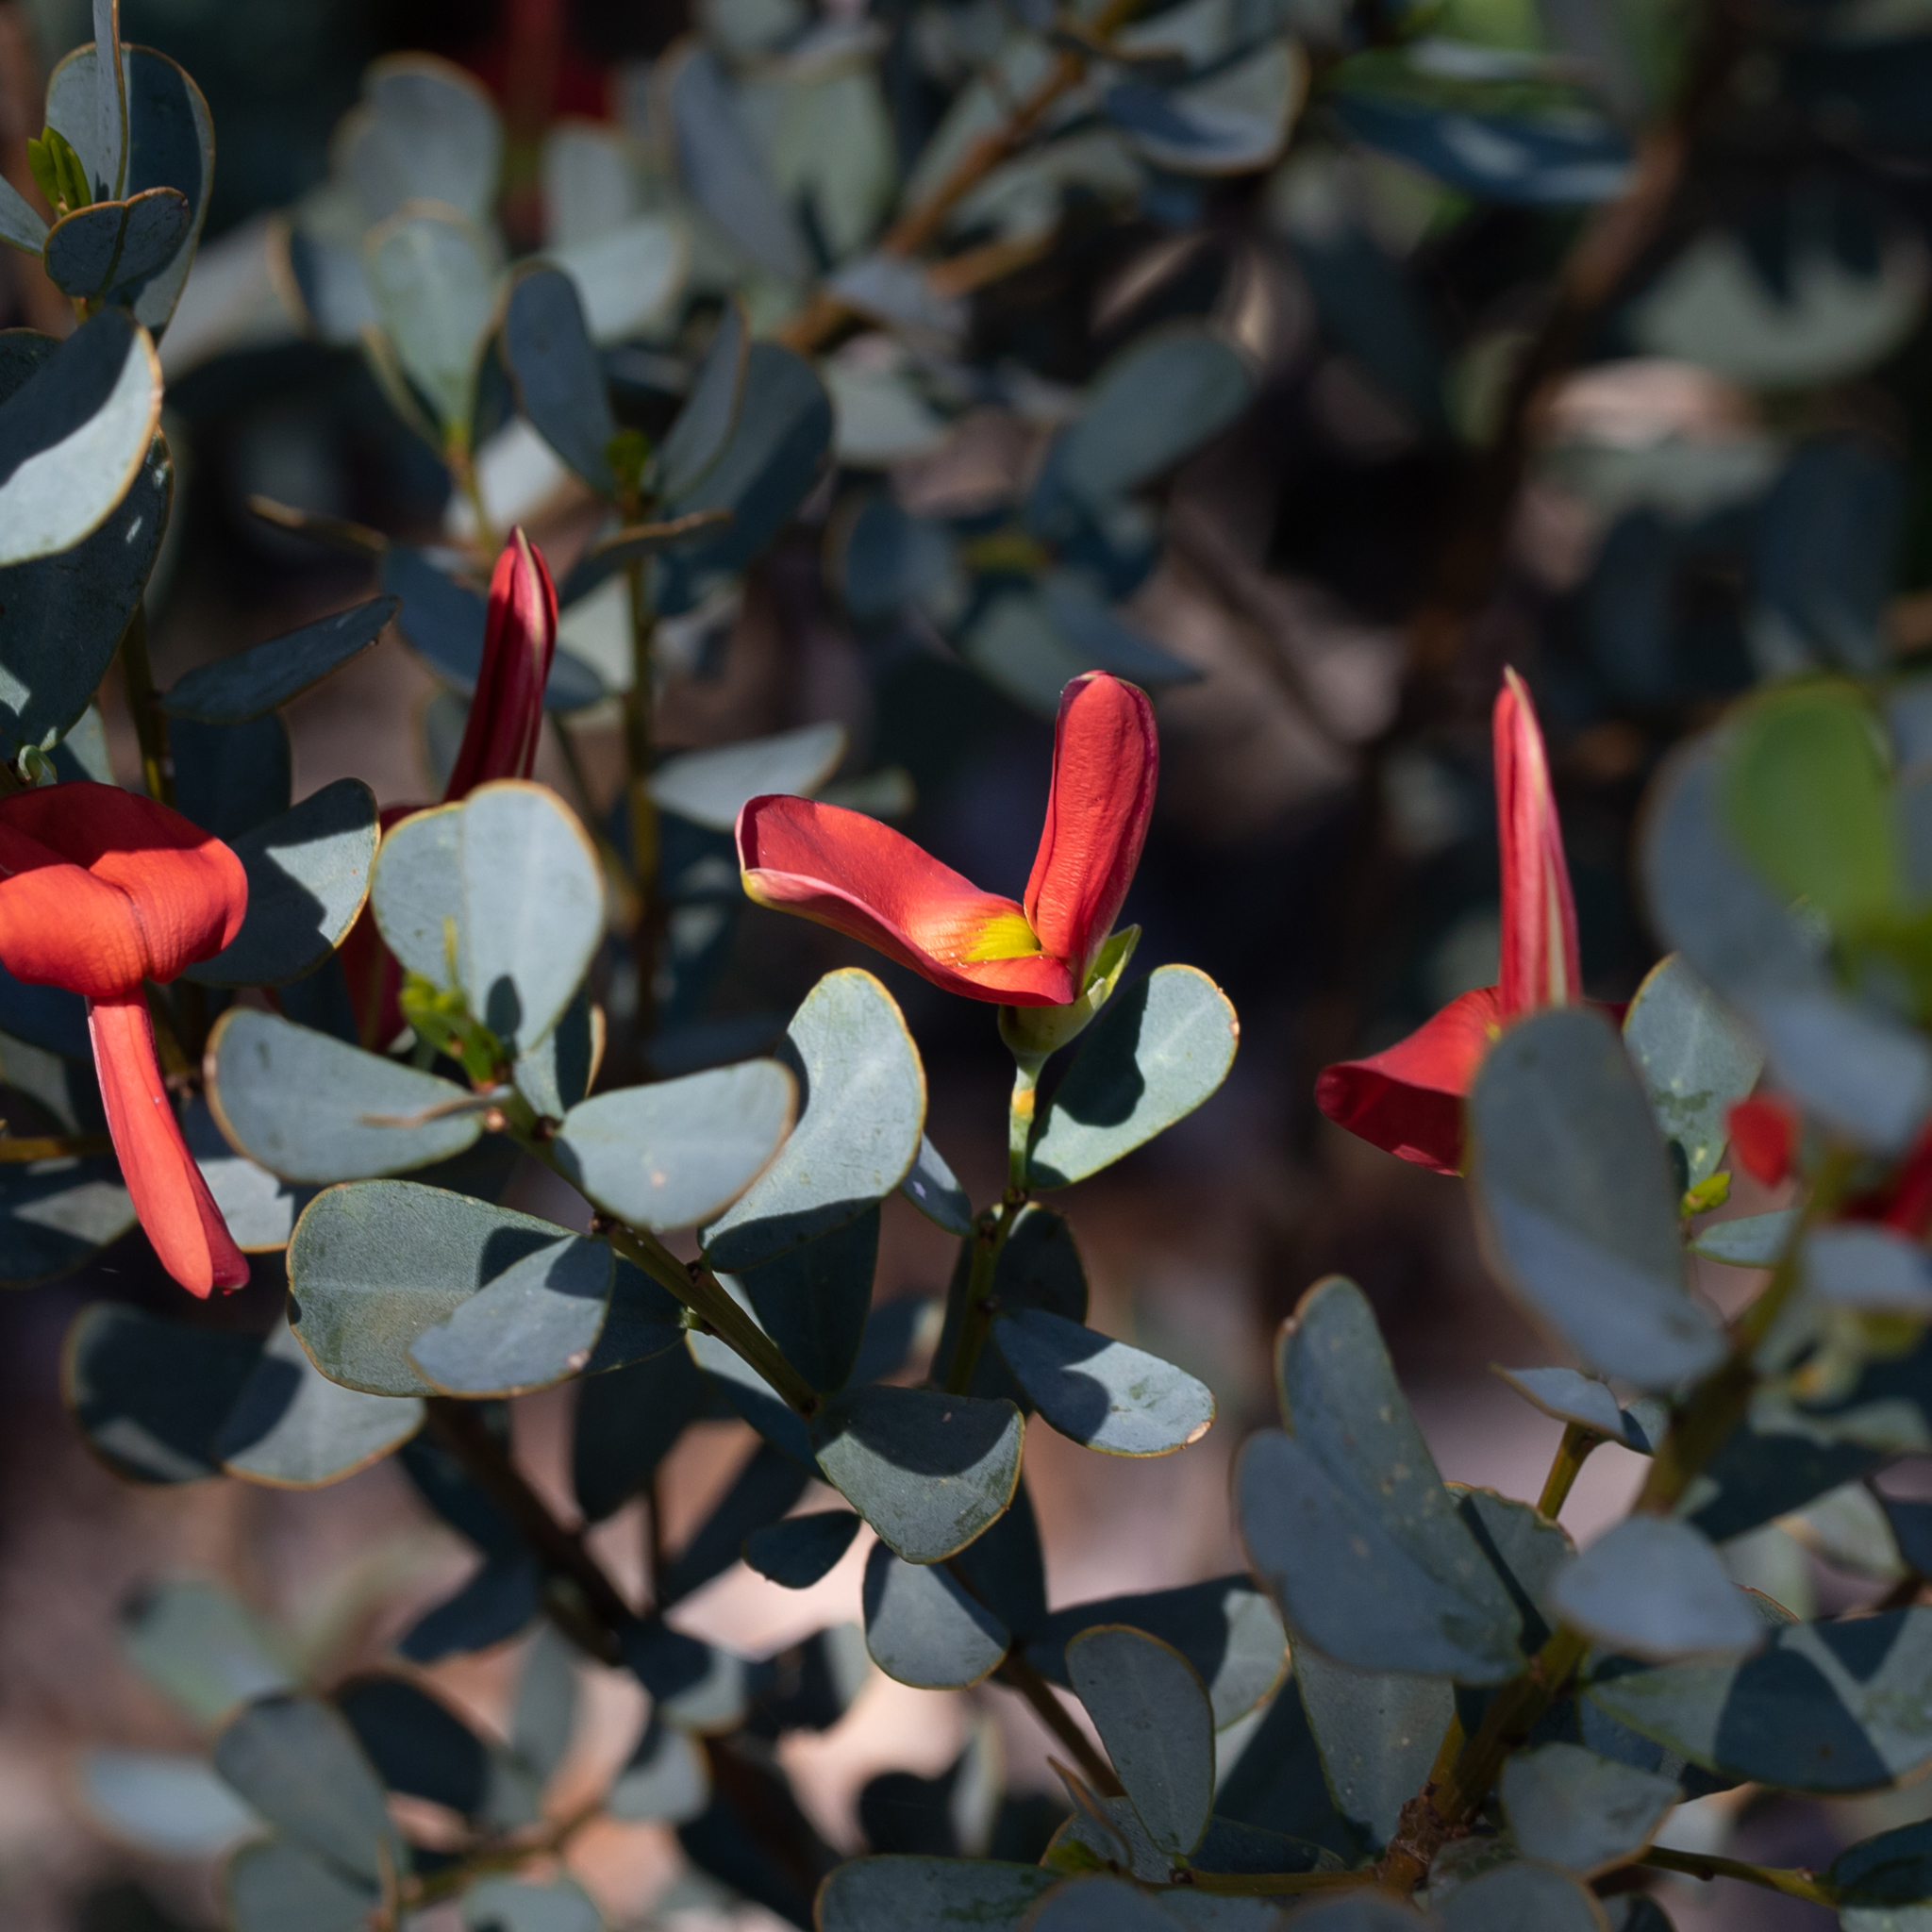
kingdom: Plantae
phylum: Tracheophyta
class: Magnoliopsida
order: Fabales
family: Fabaceae
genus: Templetonia
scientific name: Templetonia retusa
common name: Cockies'-tongue
